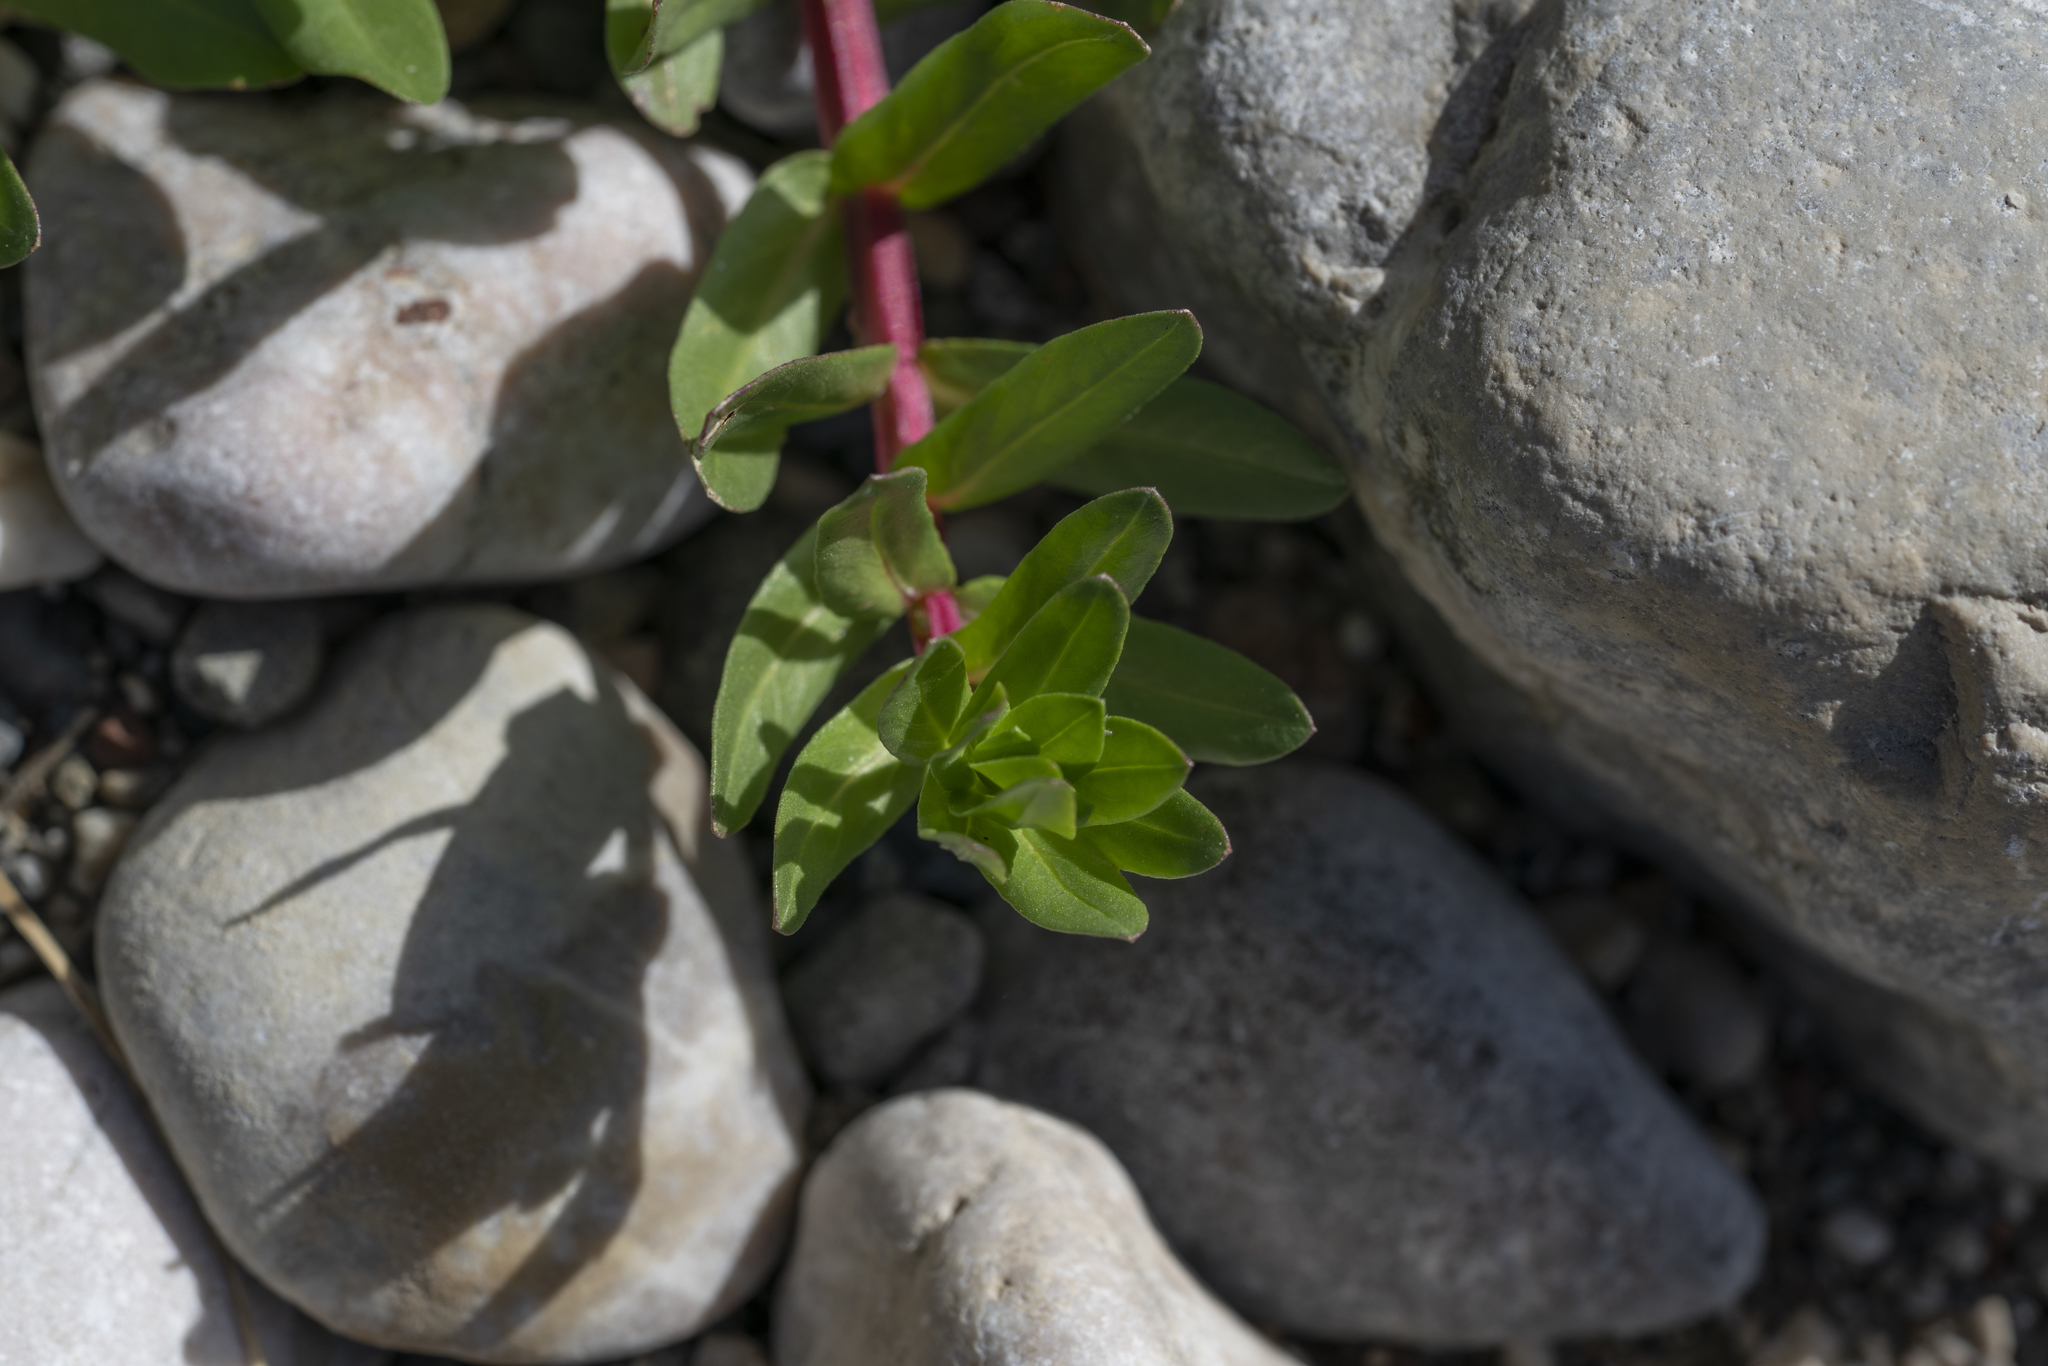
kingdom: Plantae
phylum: Tracheophyta
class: Magnoliopsida
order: Myrtales
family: Lythraceae
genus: Lythrum
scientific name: Lythrum junceum
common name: False grass-poly
